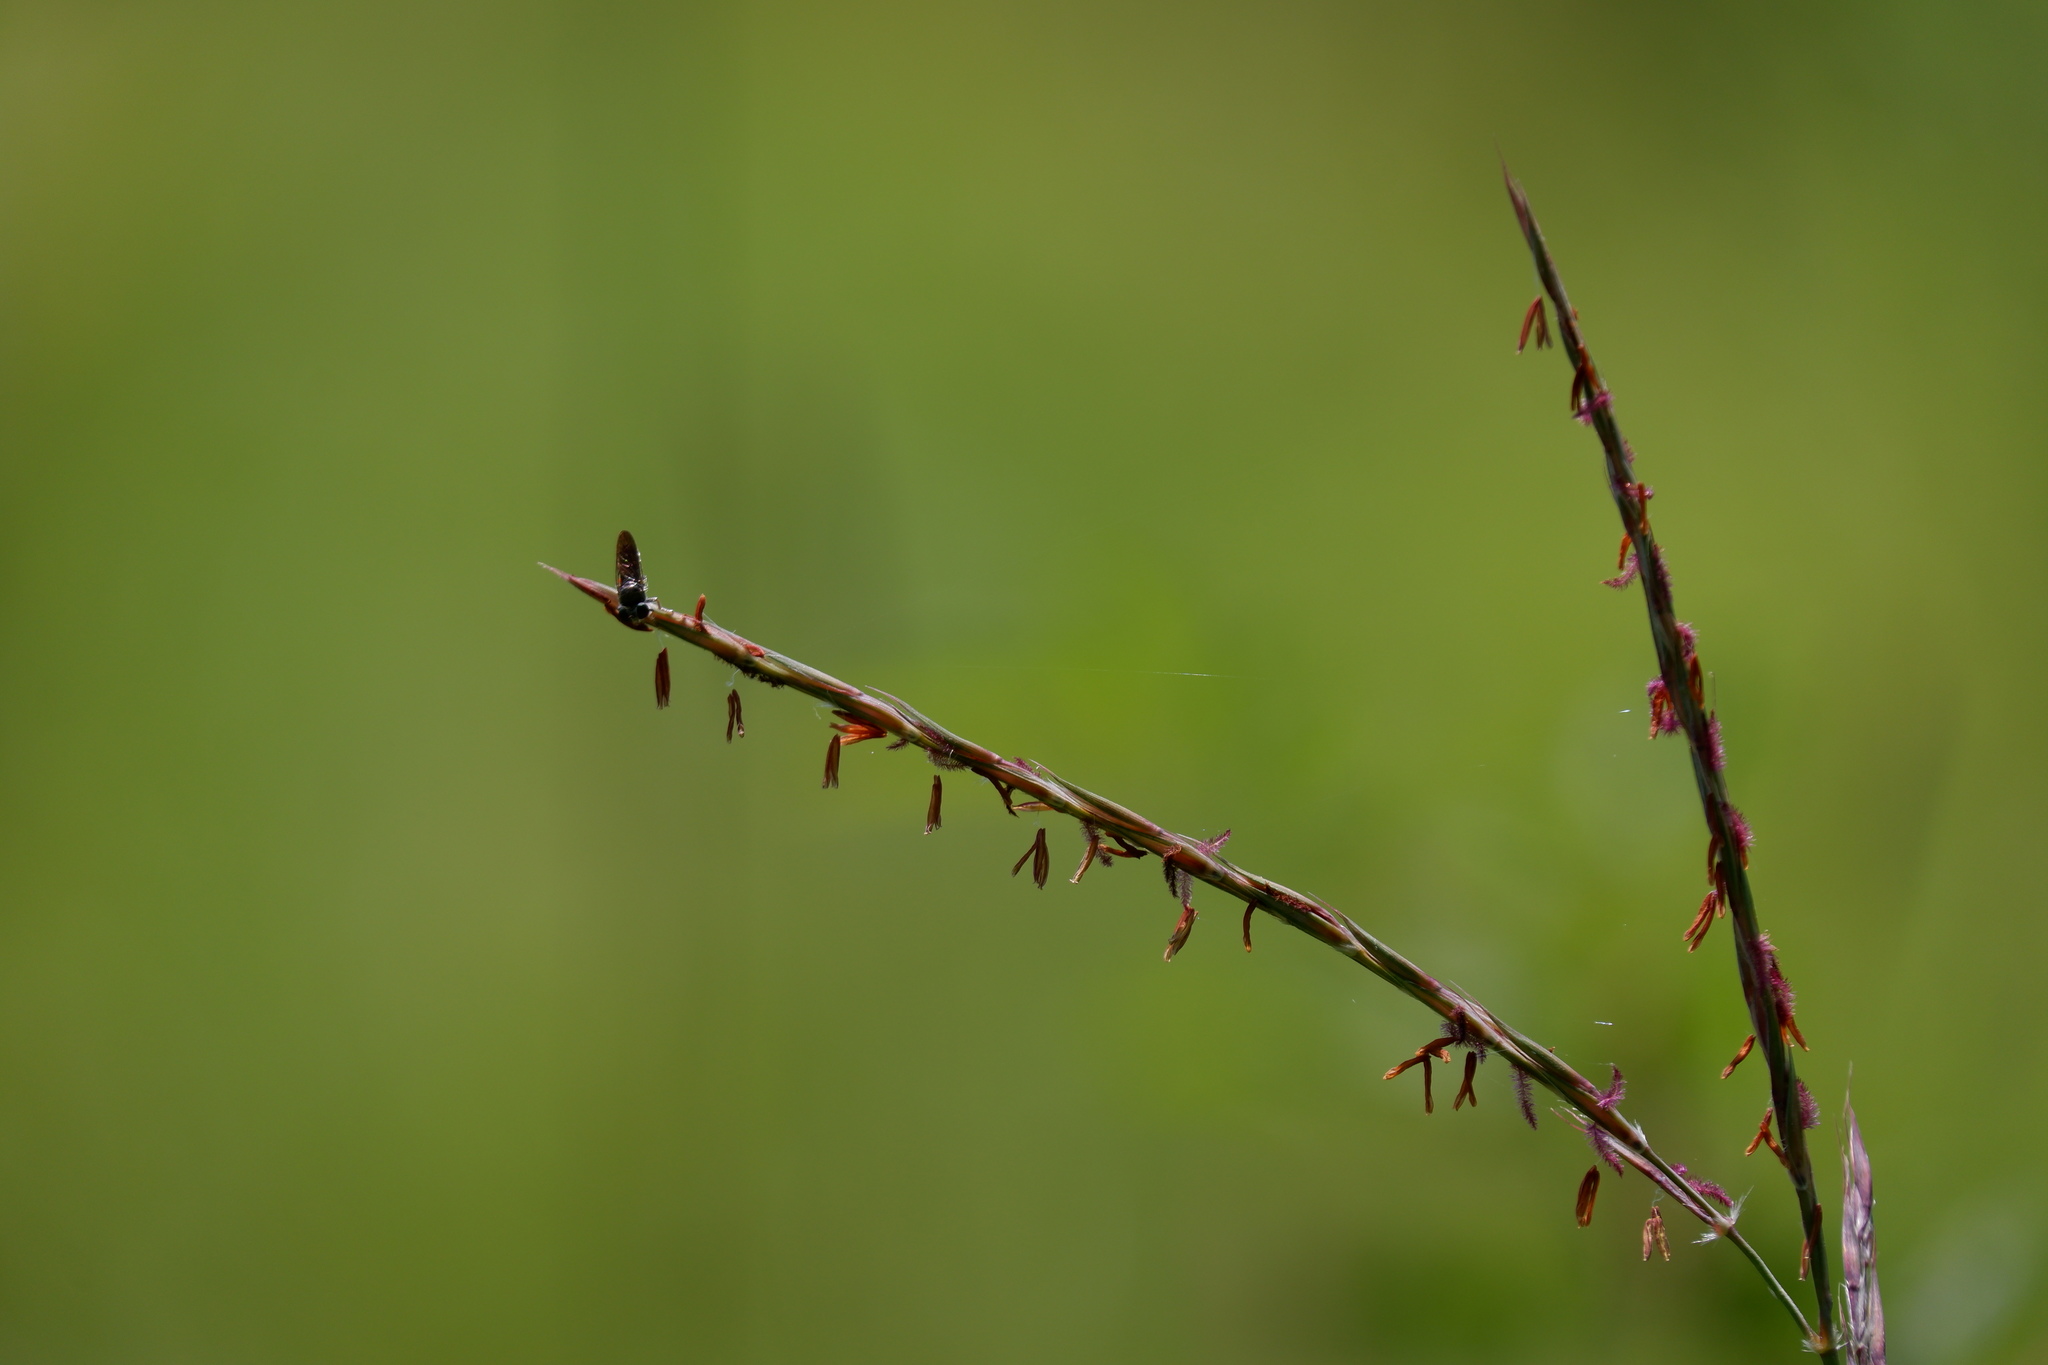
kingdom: Plantae
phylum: Tracheophyta
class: Liliopsida
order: Poales
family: Poaceae
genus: Andropogon
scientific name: Andropogon gerardi
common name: Big bluestem
